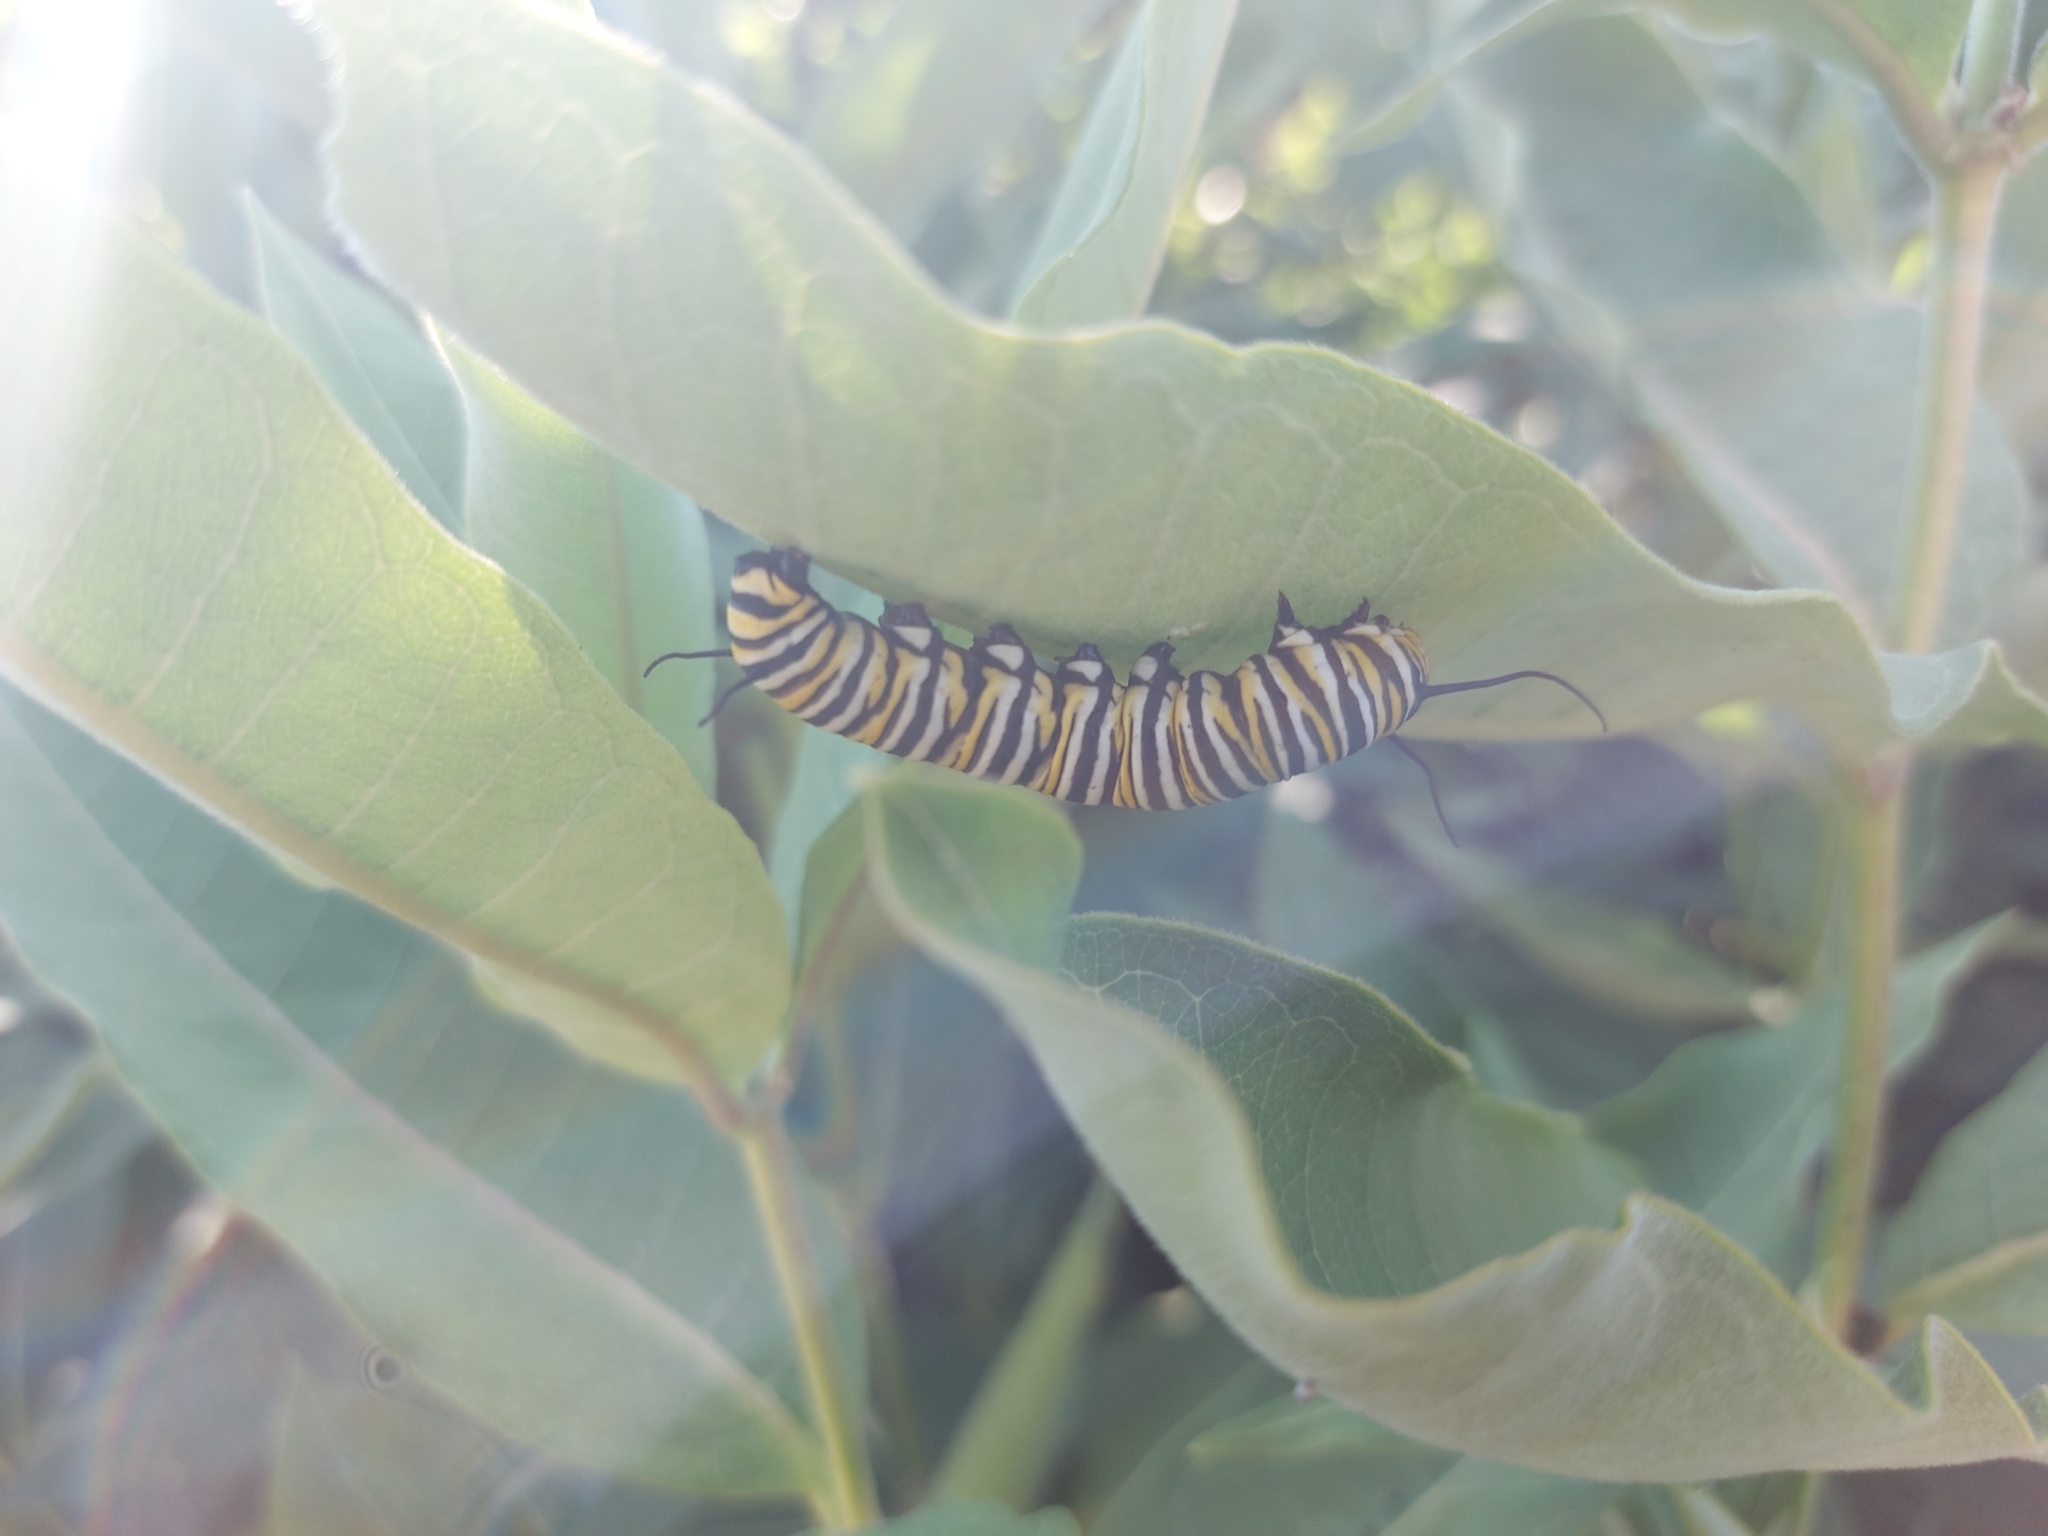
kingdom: Animalia
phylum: Arthropoda
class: Insecta
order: Lepidoptera
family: Nymphalidae
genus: Danaus
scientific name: Danaus plexippus
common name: Monarch
